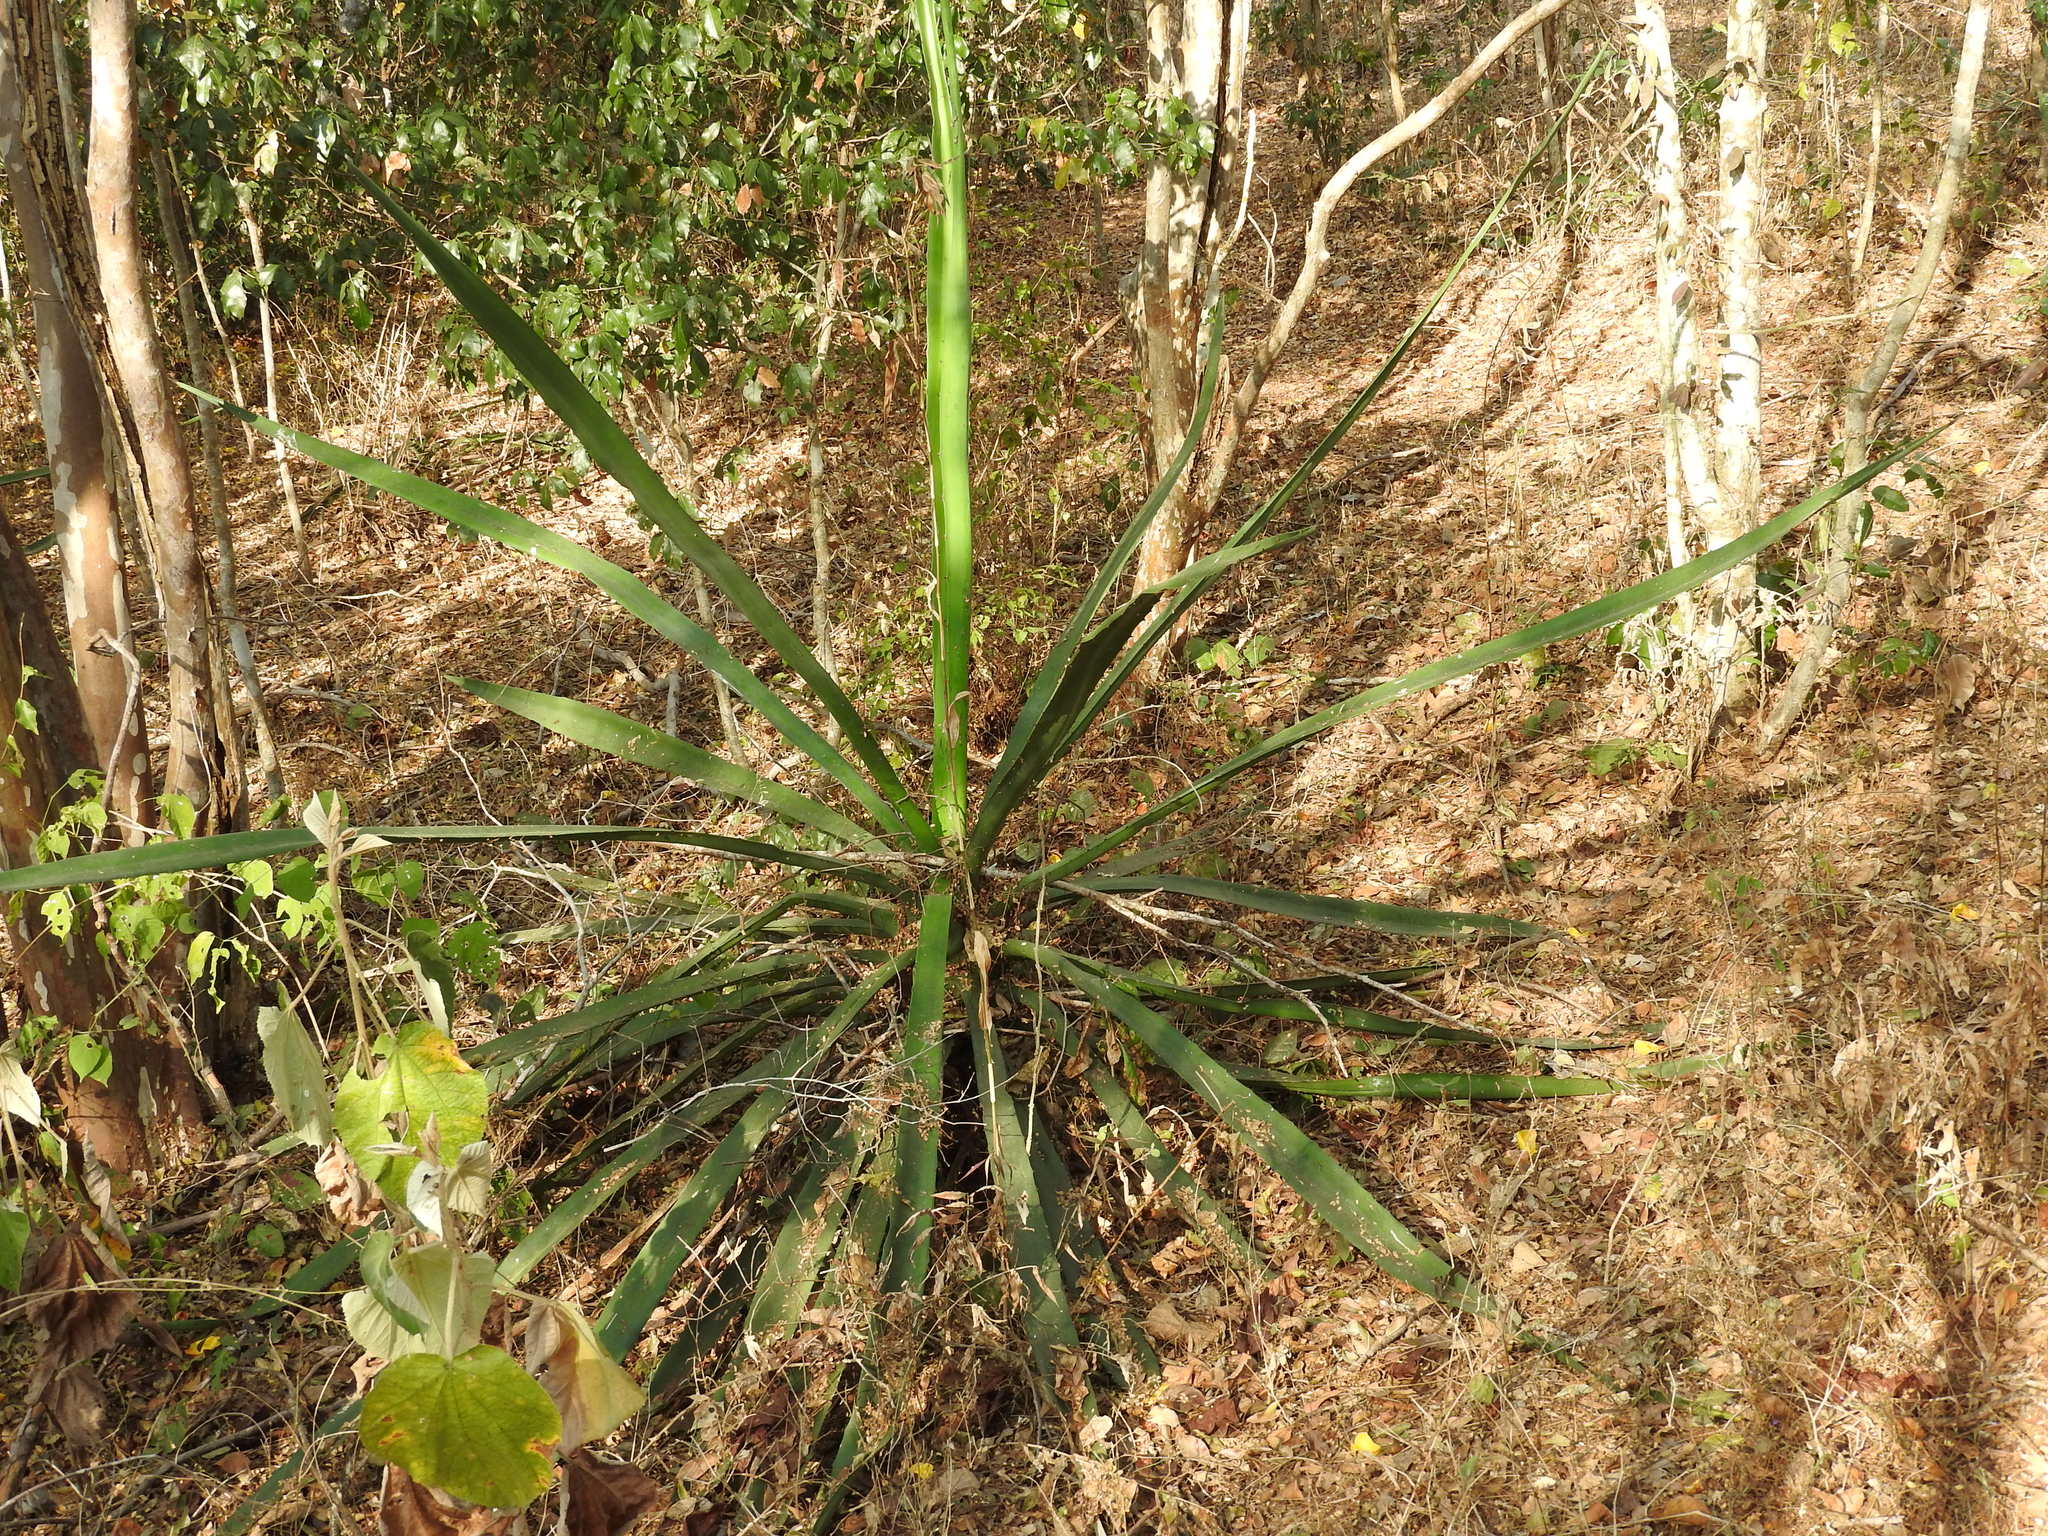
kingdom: Plantae
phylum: Tracheophyta
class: Liliopsida
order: Asparagales
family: Asparagaceae
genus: Agave
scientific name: Agave vivipara
